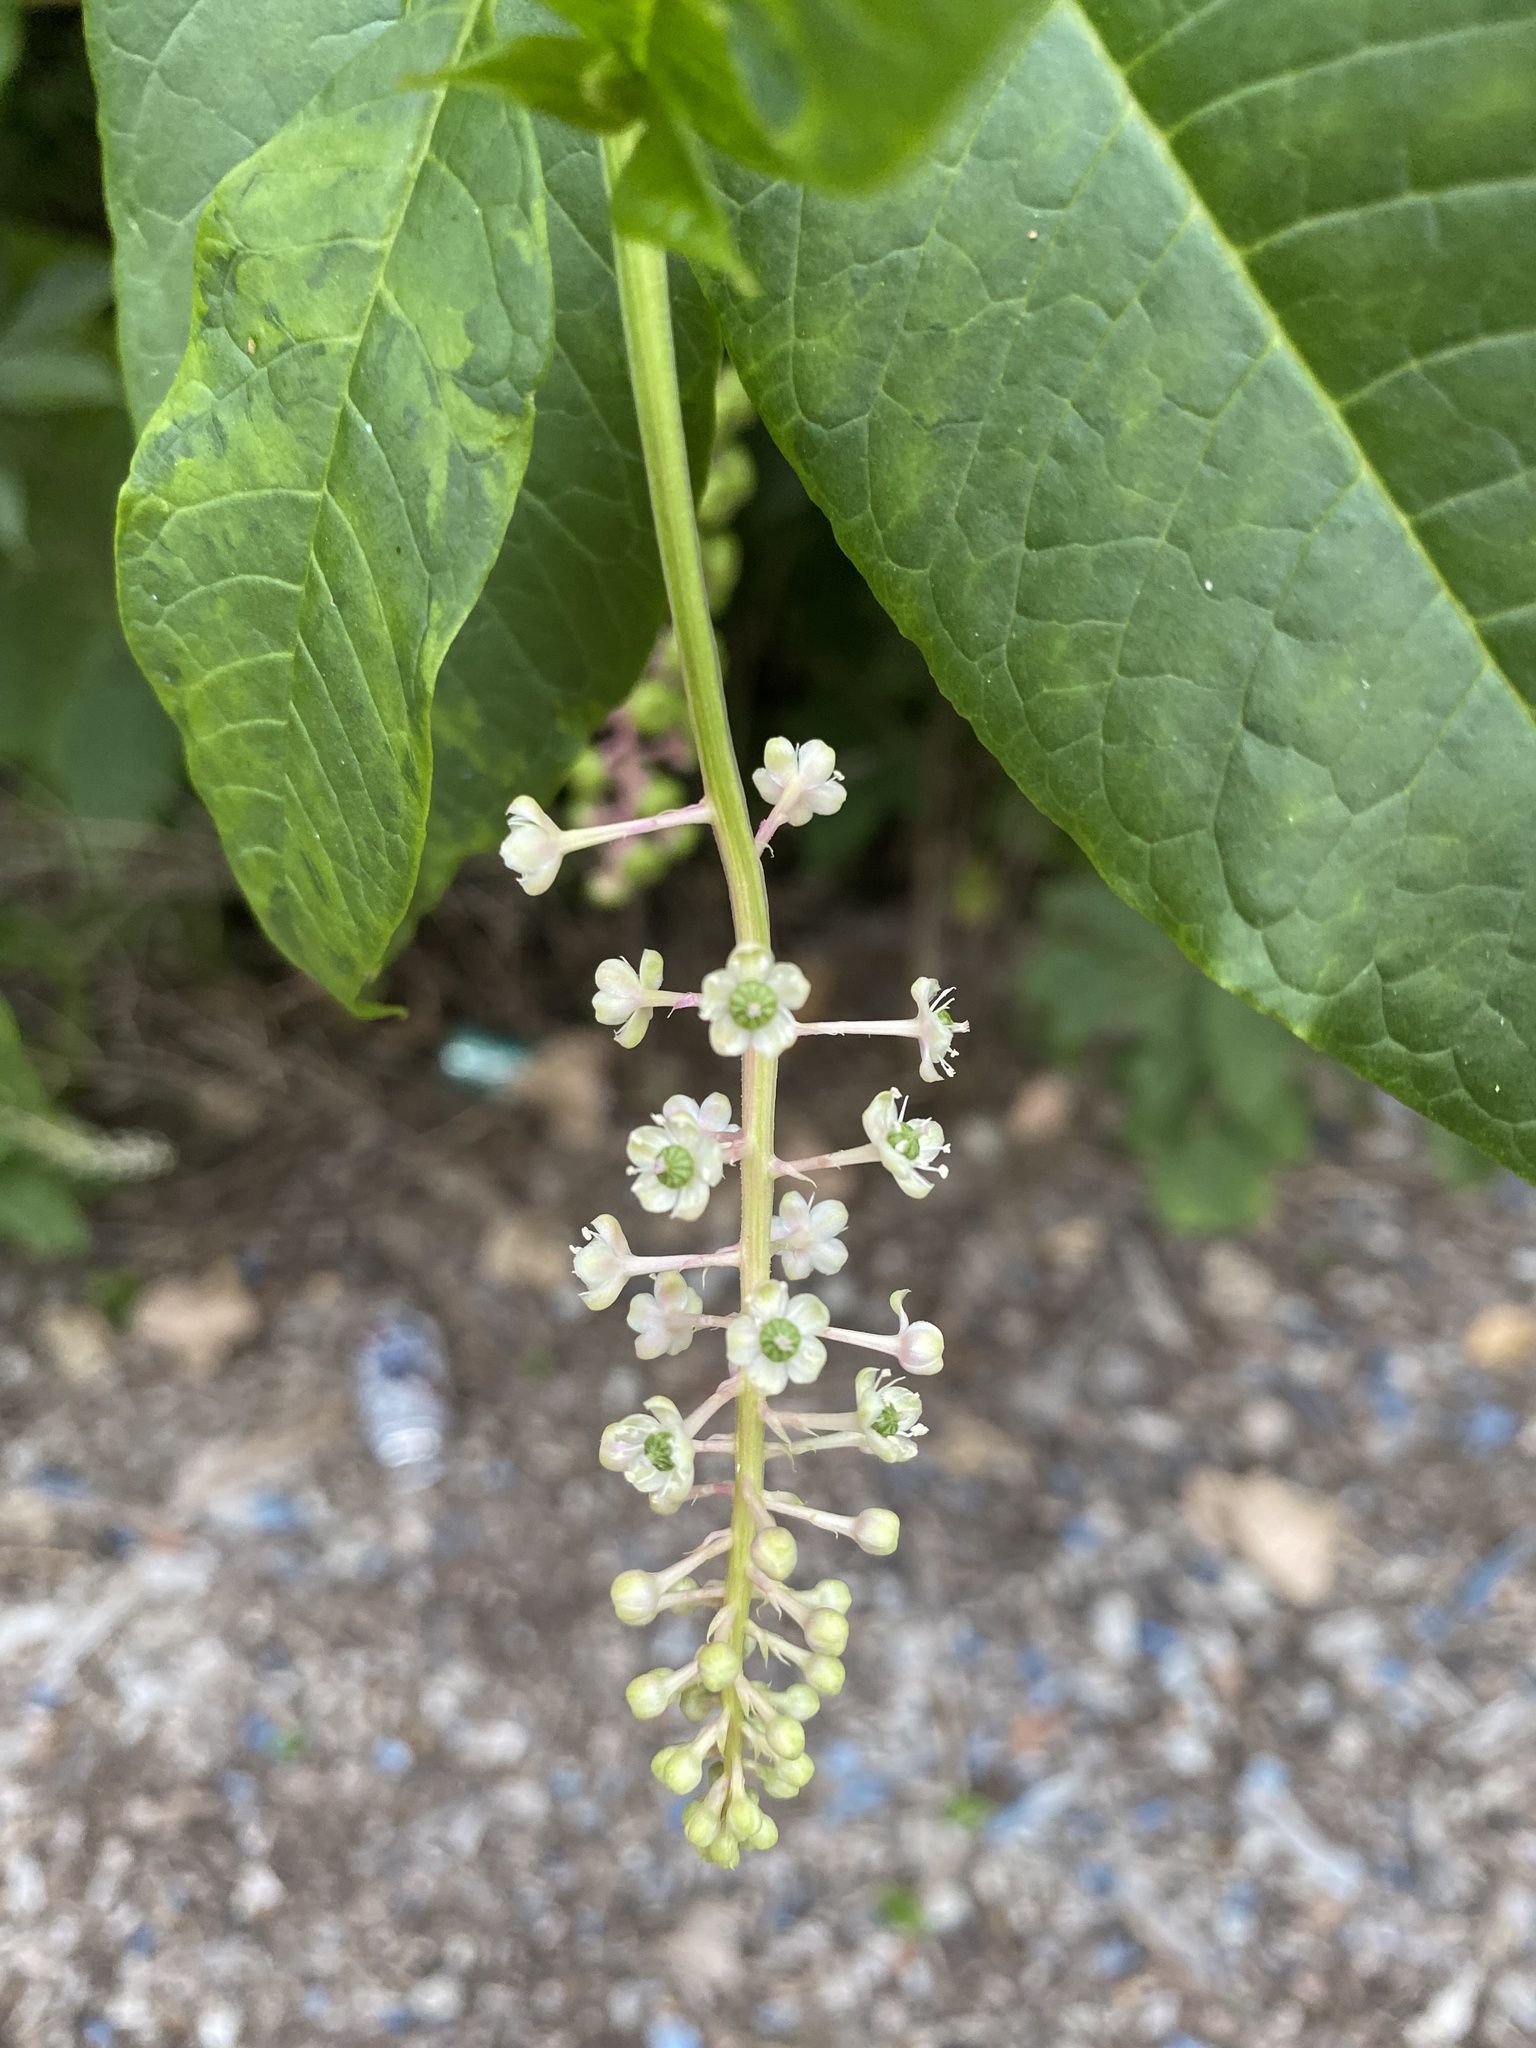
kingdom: Plantae
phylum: Tracheophyta
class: Magnoliopsida
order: Caryophyllales
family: Phytolaccaceae
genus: Phytolacca
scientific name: Phytolacca americana
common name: American pokeweed
